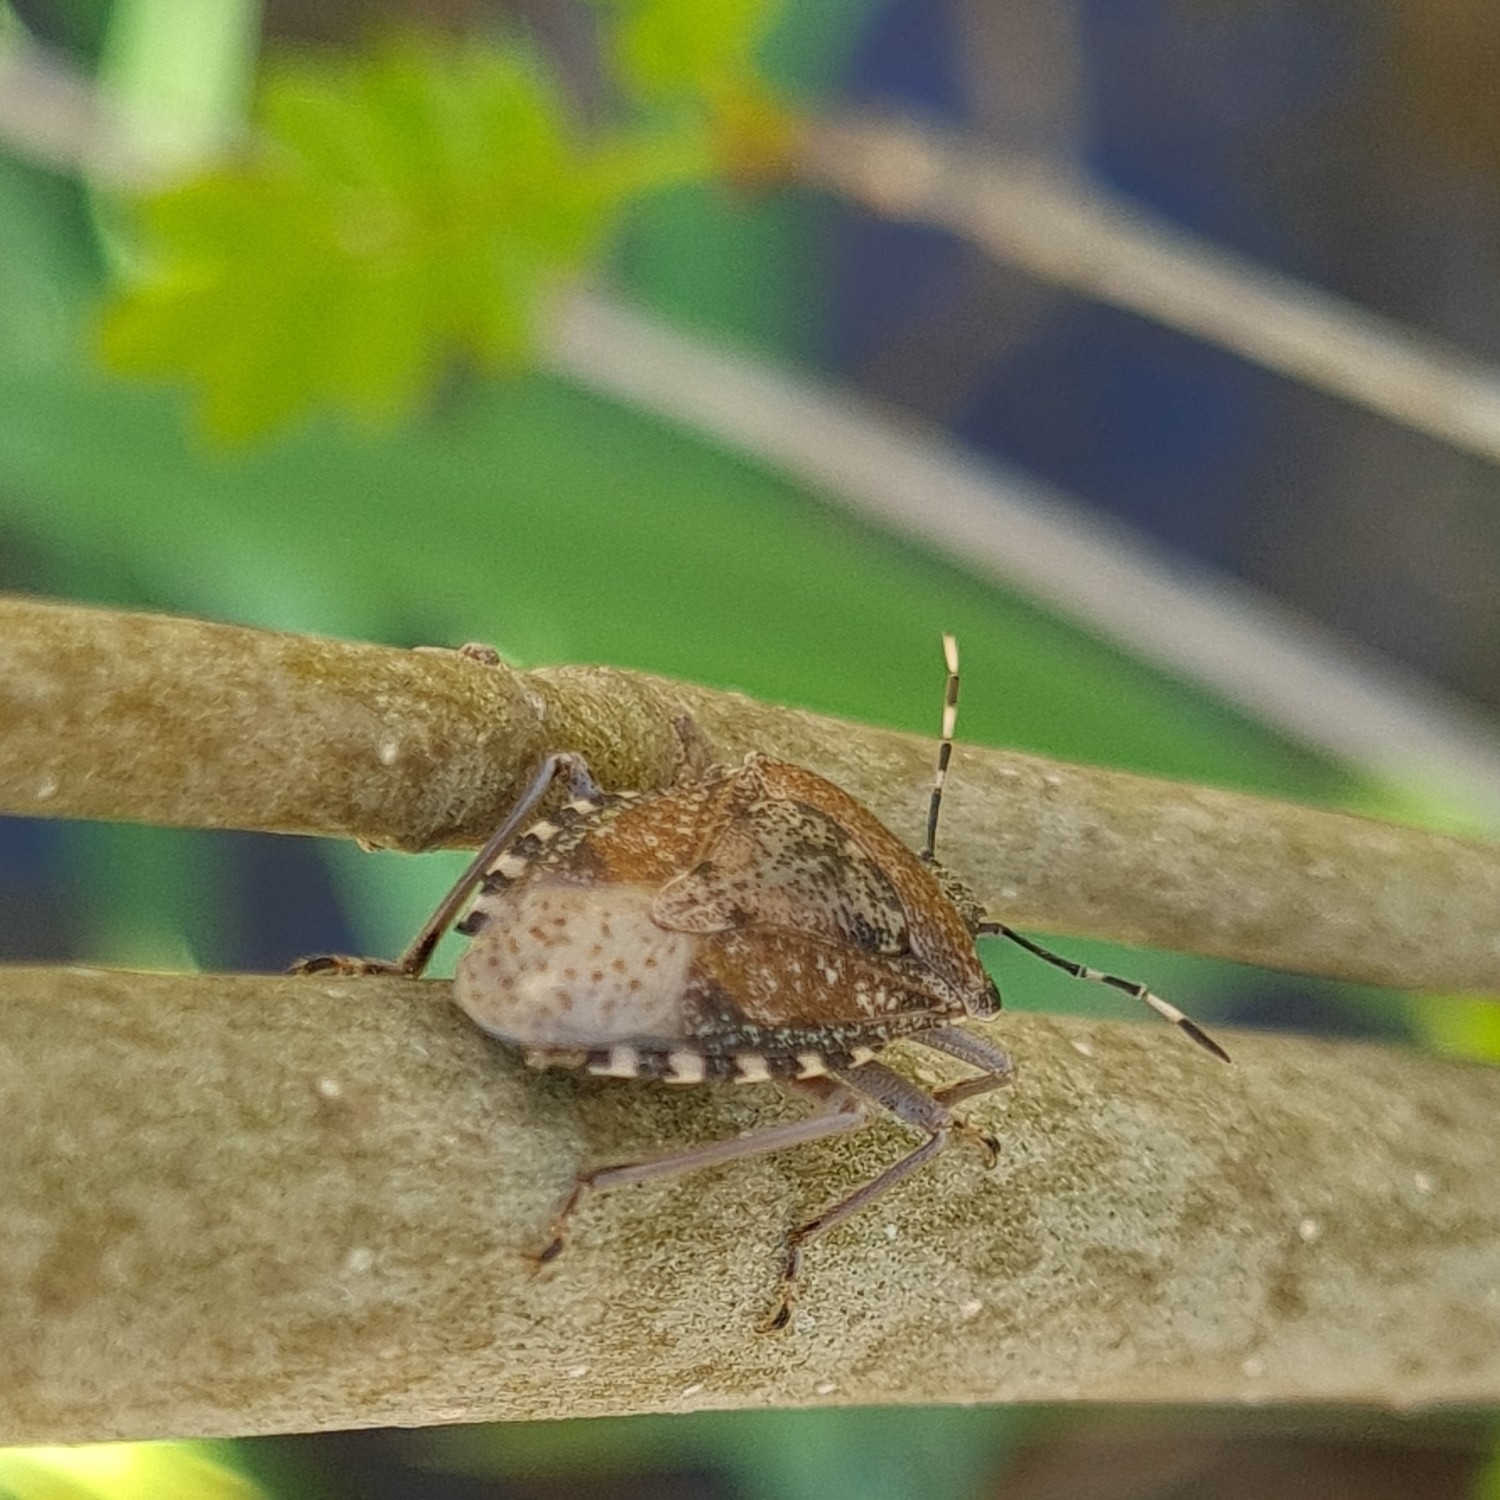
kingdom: Animalia
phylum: Arthropoda
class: Insecta
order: Hemiptera
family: Pentatomidae
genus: Rhaphigaster
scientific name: Rhaphigaster nebulosa
